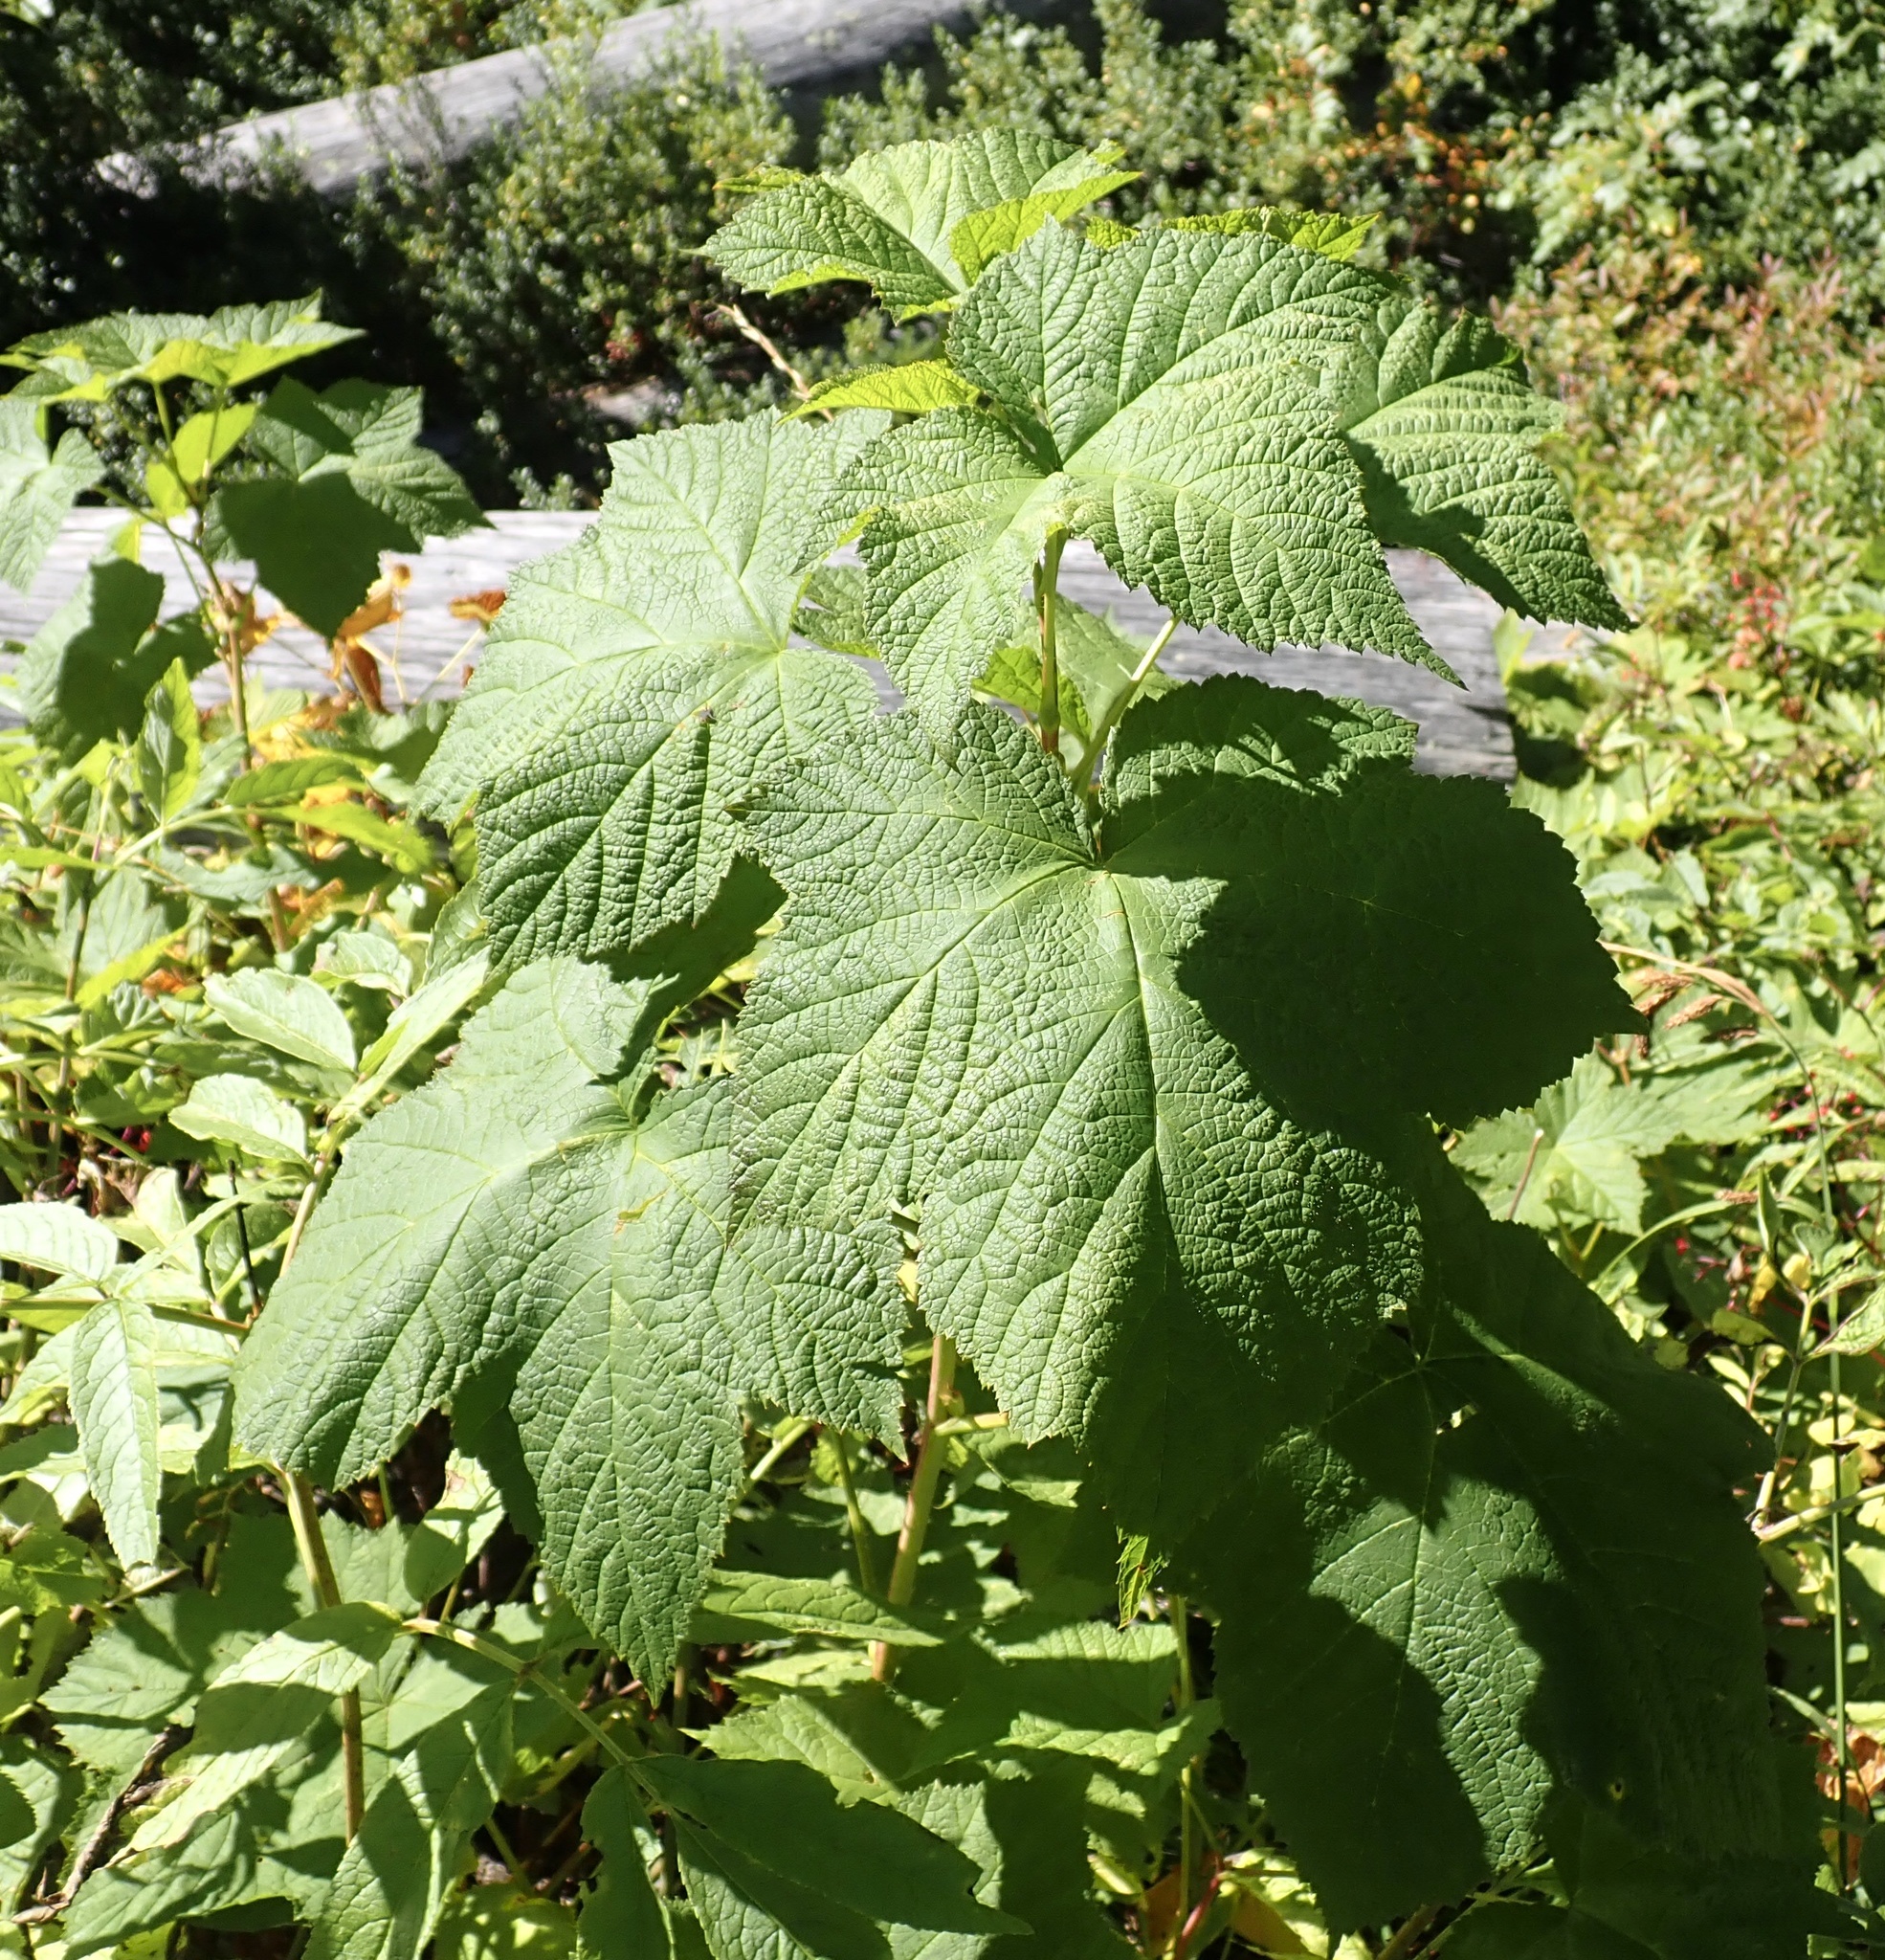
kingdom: Plantae
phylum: Tracheophyta
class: Magnoliopsida
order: Rosales
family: Rosaceae
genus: Rubus
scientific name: Rubus parviflorus
